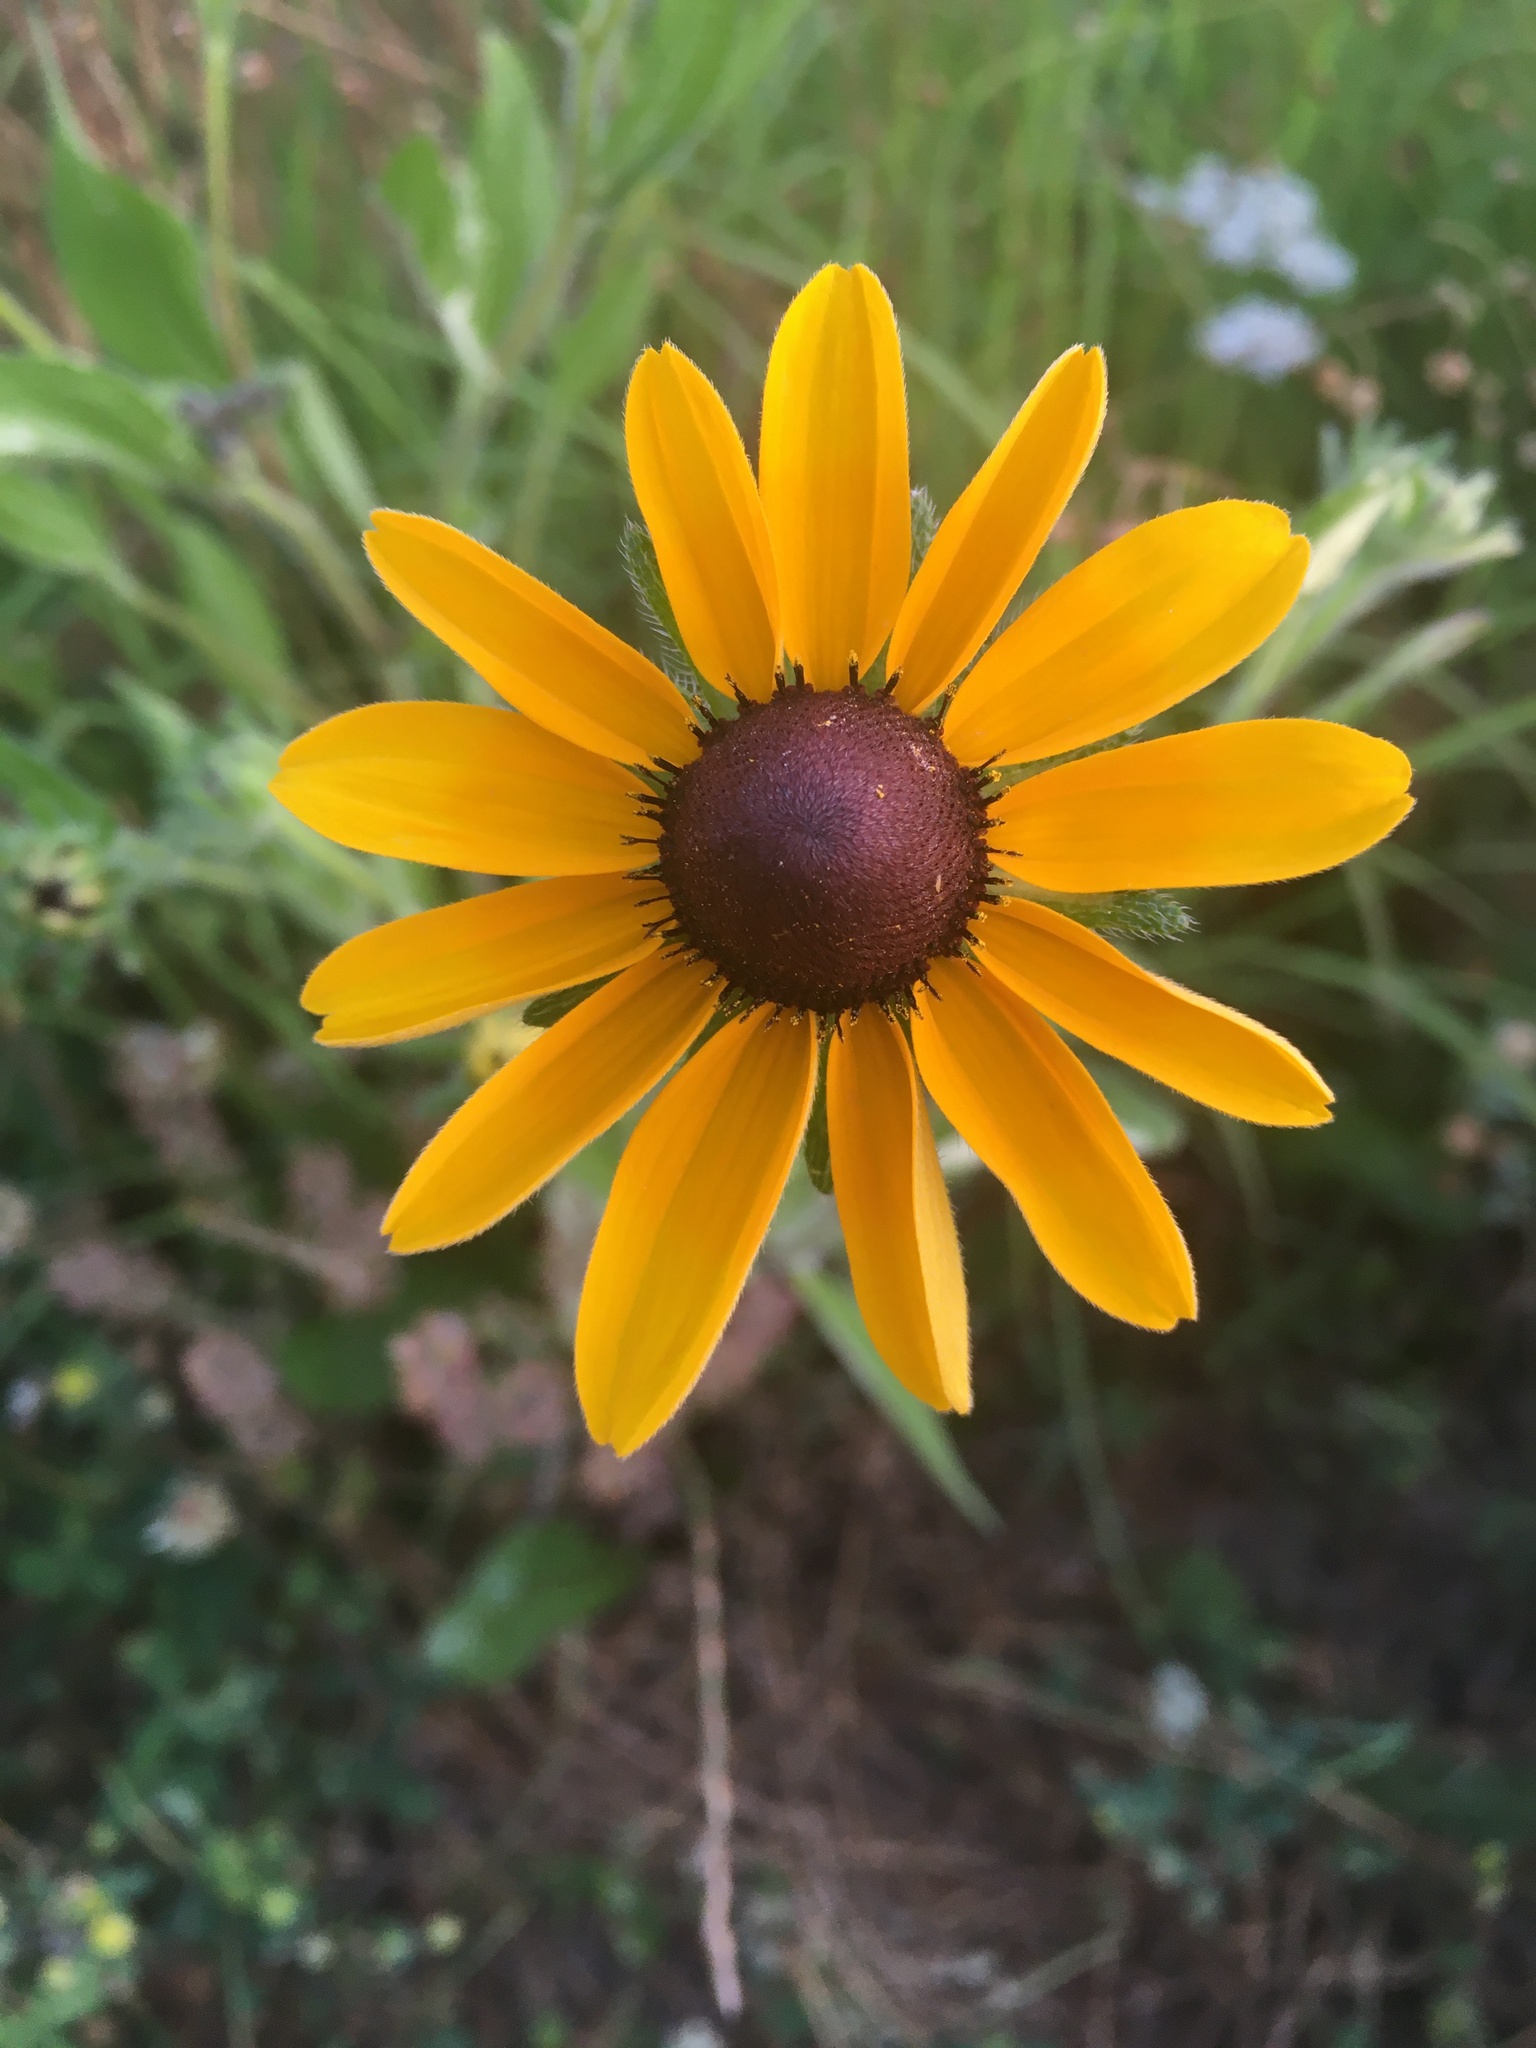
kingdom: Plantae
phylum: Tracheophyta
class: Magnoliopsida
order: Asterales
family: Asteraceae
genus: Rudbeckia
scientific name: Rudbeckia hirta
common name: Black-eyed-susan
